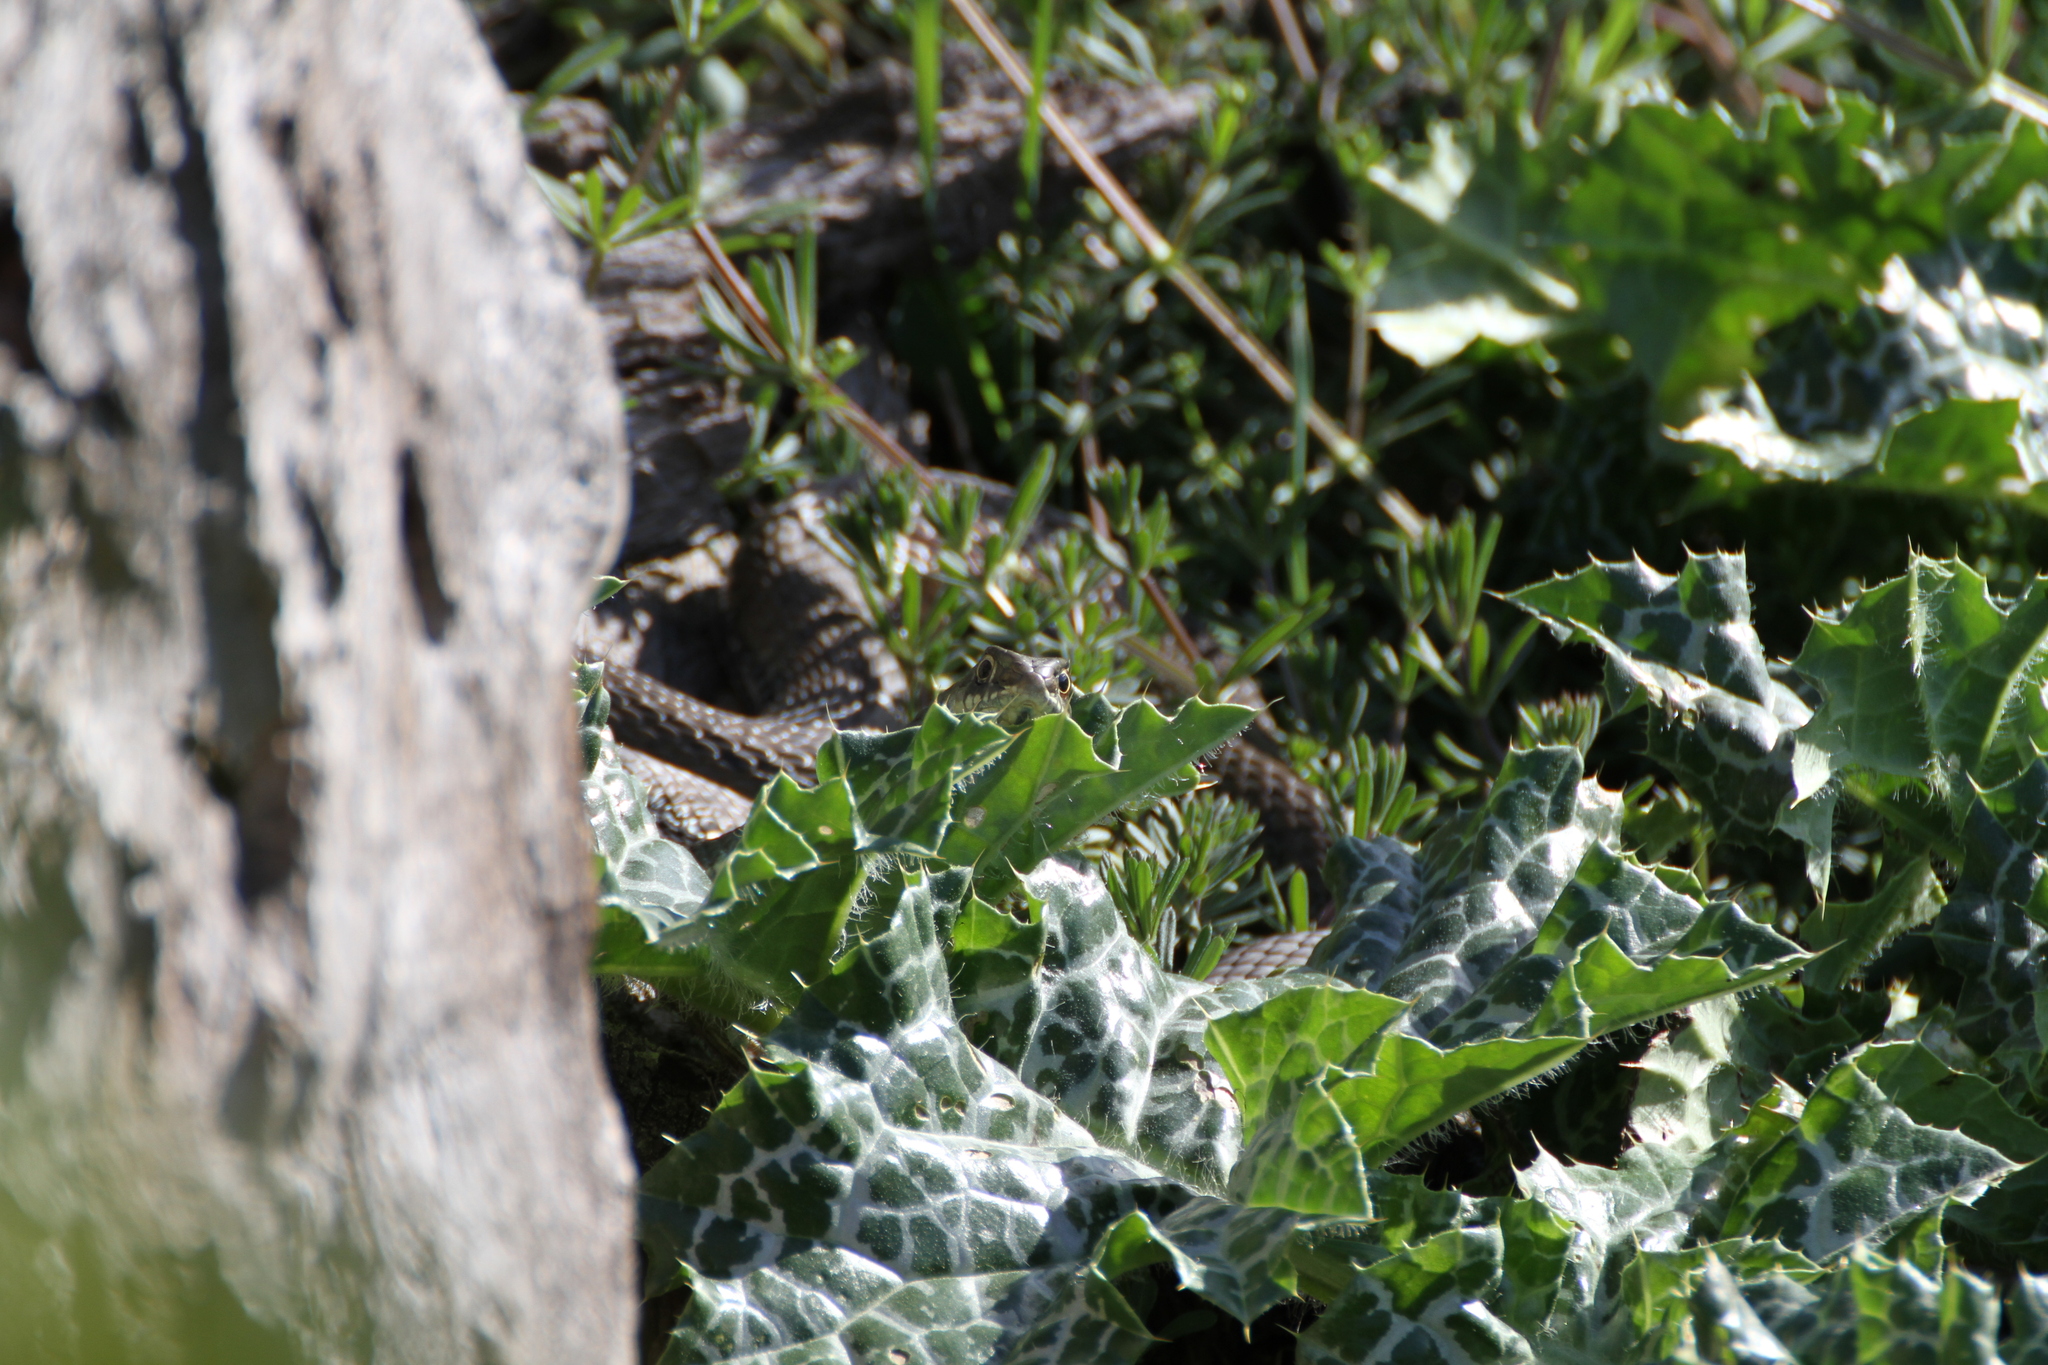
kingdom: Animalia
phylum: Chordata
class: Squamata
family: Psammophiidae
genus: Malpolon
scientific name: Malpolon monspessulanus
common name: Montpellier snake
